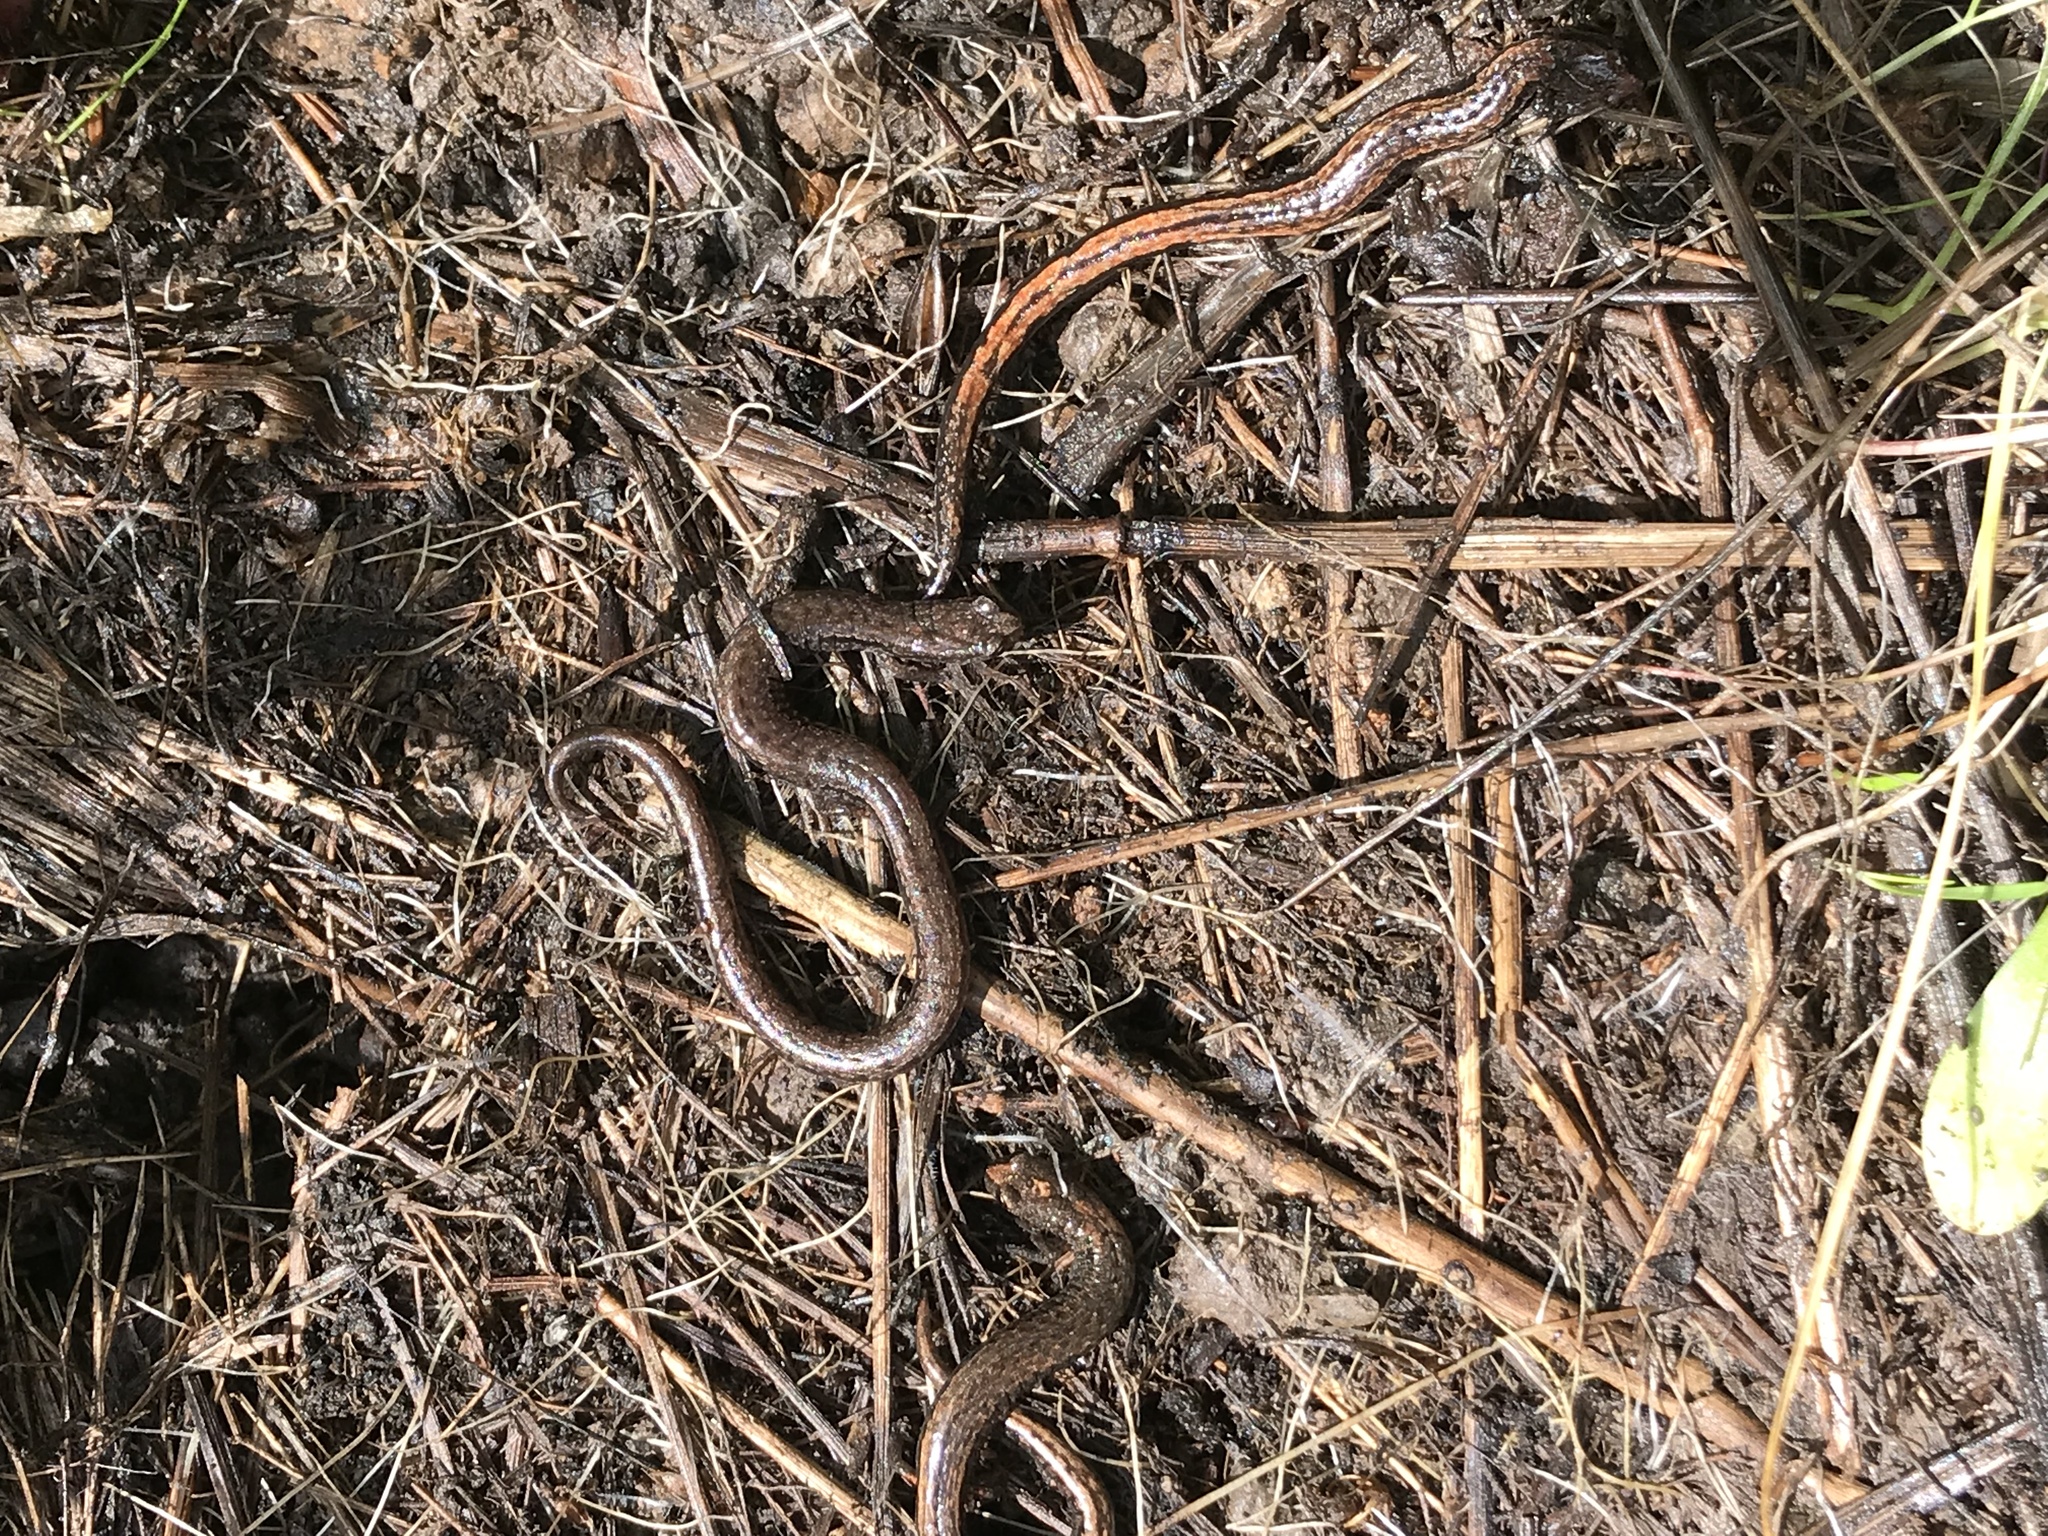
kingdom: Animalia
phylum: Chordata
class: Amphibia
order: Caudata
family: Plethodontidae
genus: Batrachoseps
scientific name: Batrachoseps attenuatus
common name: California slender salamander
